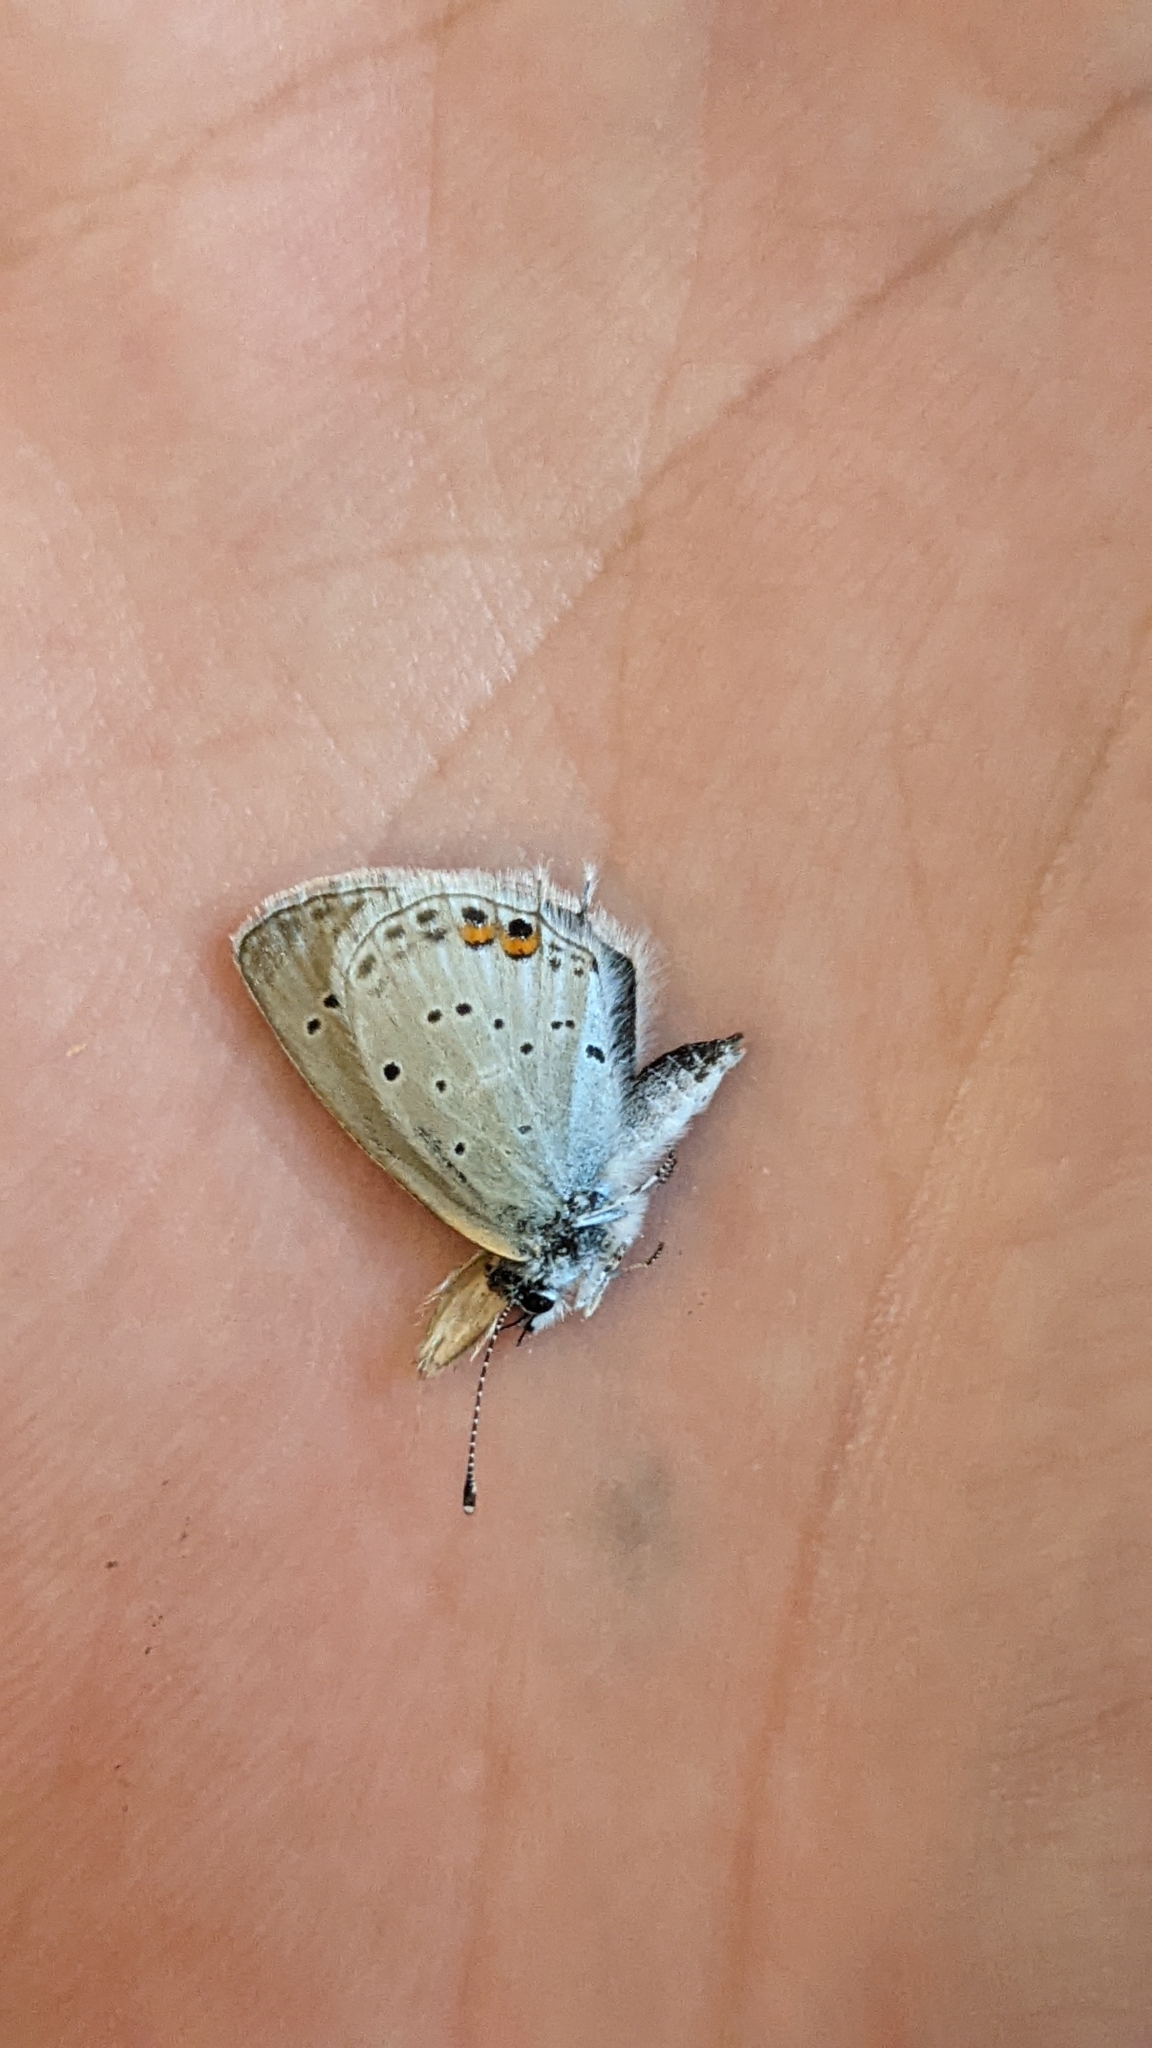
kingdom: Animalia
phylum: Arthropoda
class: Insecta
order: Lepidoptera
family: Lycaenidae
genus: Elkalyce
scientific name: Elkalyce argiades
